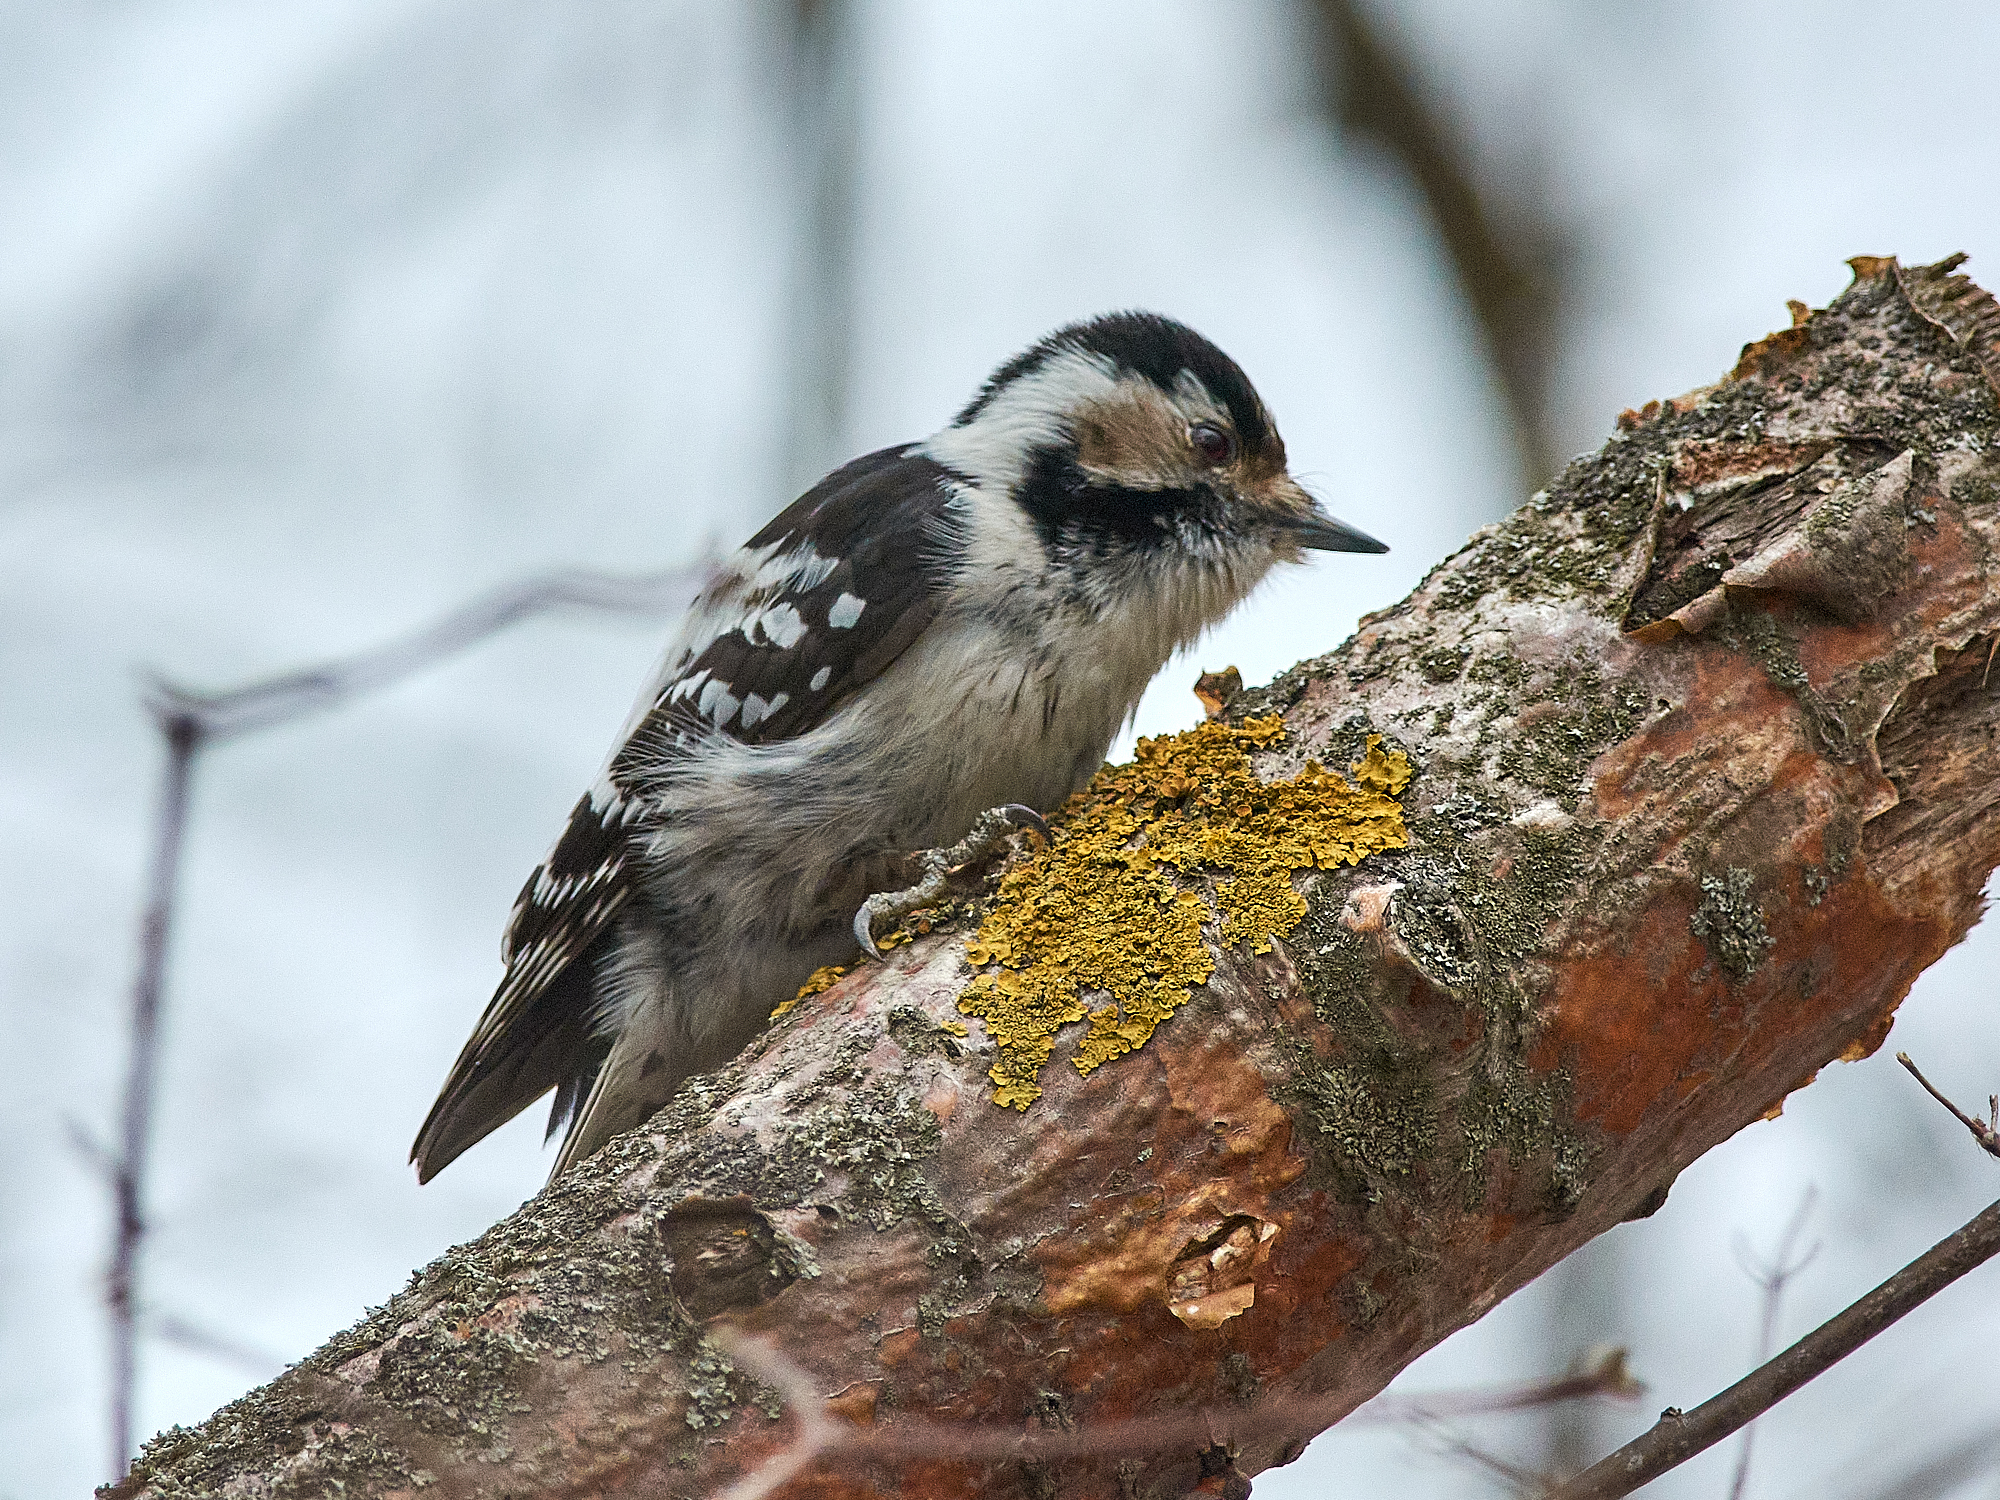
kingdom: Animalia
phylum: Chordata
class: Aves
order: Piciformes
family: Picidae
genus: Dryobates
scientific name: Dryobates minor
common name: Lesser spotted woodpecker
